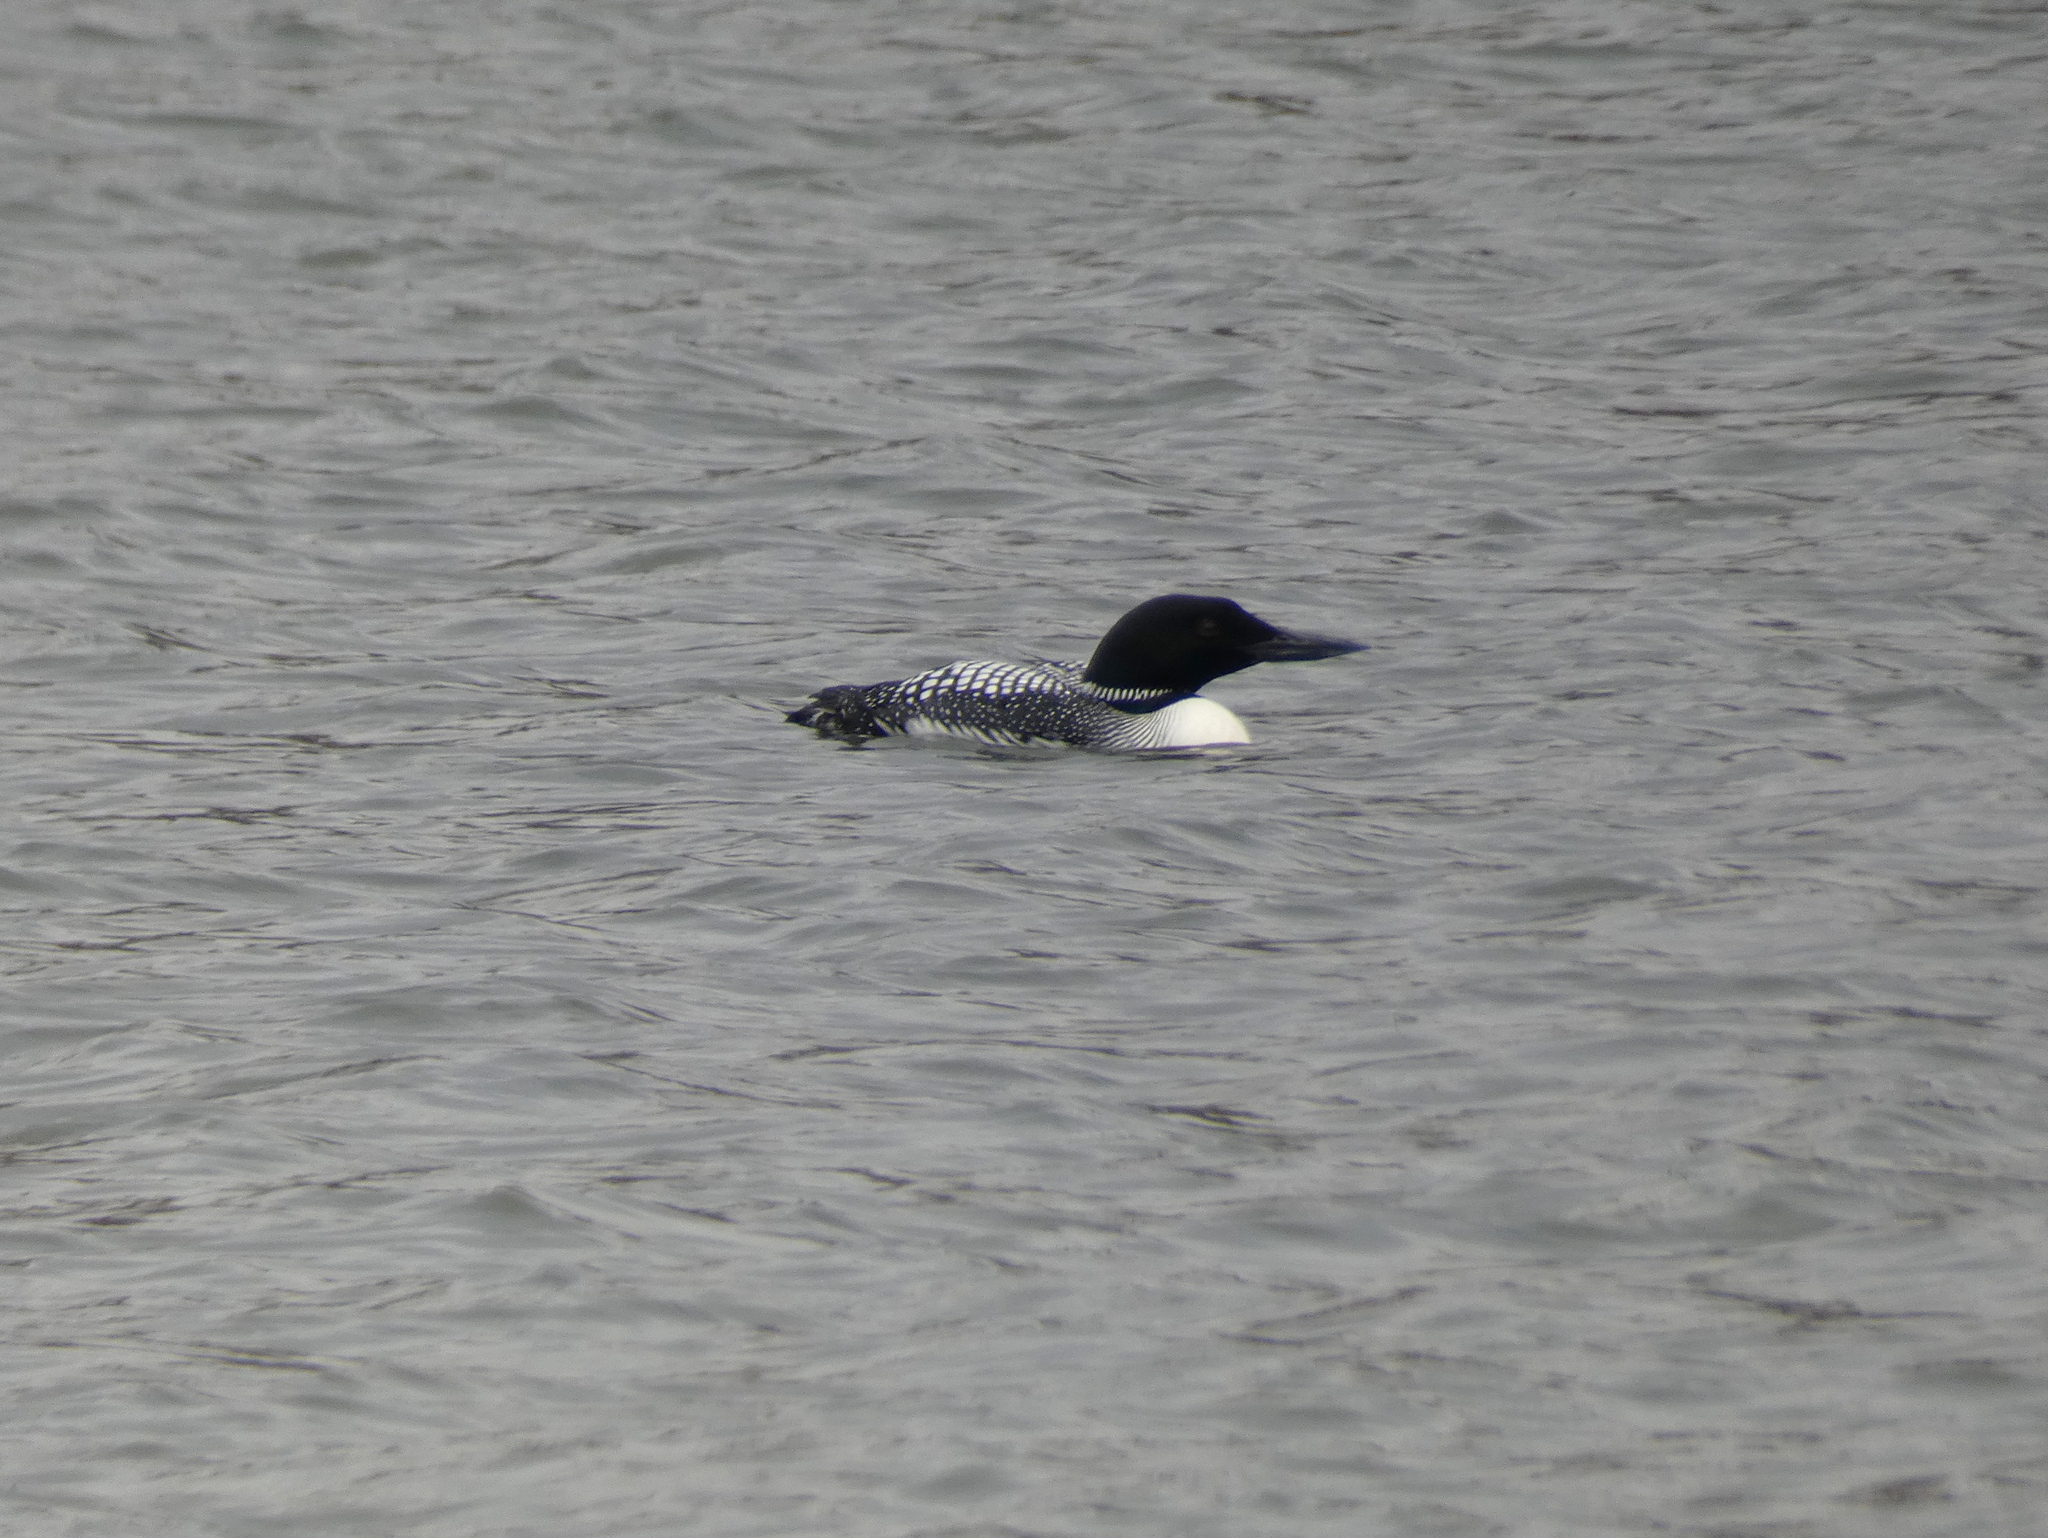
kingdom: Animalia
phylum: Chordata
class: Aves
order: Gaviiformes
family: Gaviidae
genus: Gavia
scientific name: Gavia immer
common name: Common loon
